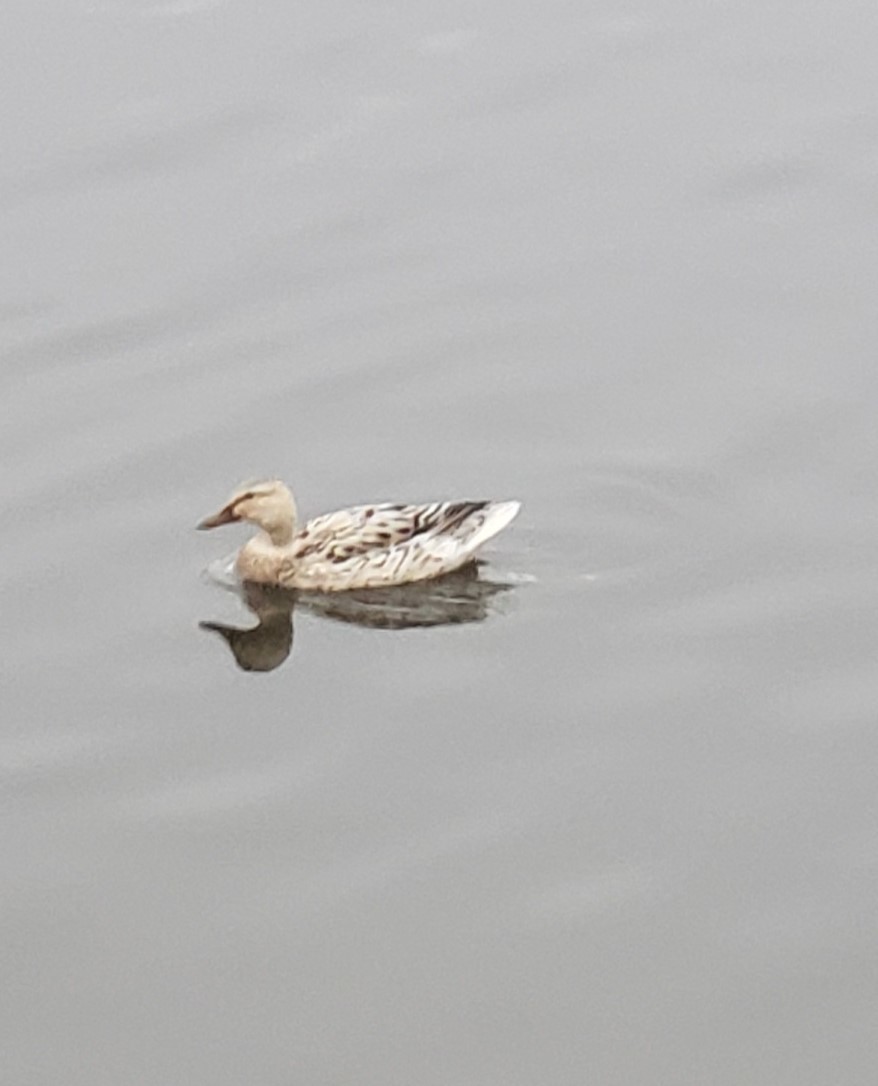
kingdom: Animalia
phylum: Chordata
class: Aves
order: Anseriformes
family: Anatidae
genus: Anas
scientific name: Anas platyrhynchos
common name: Mallard
